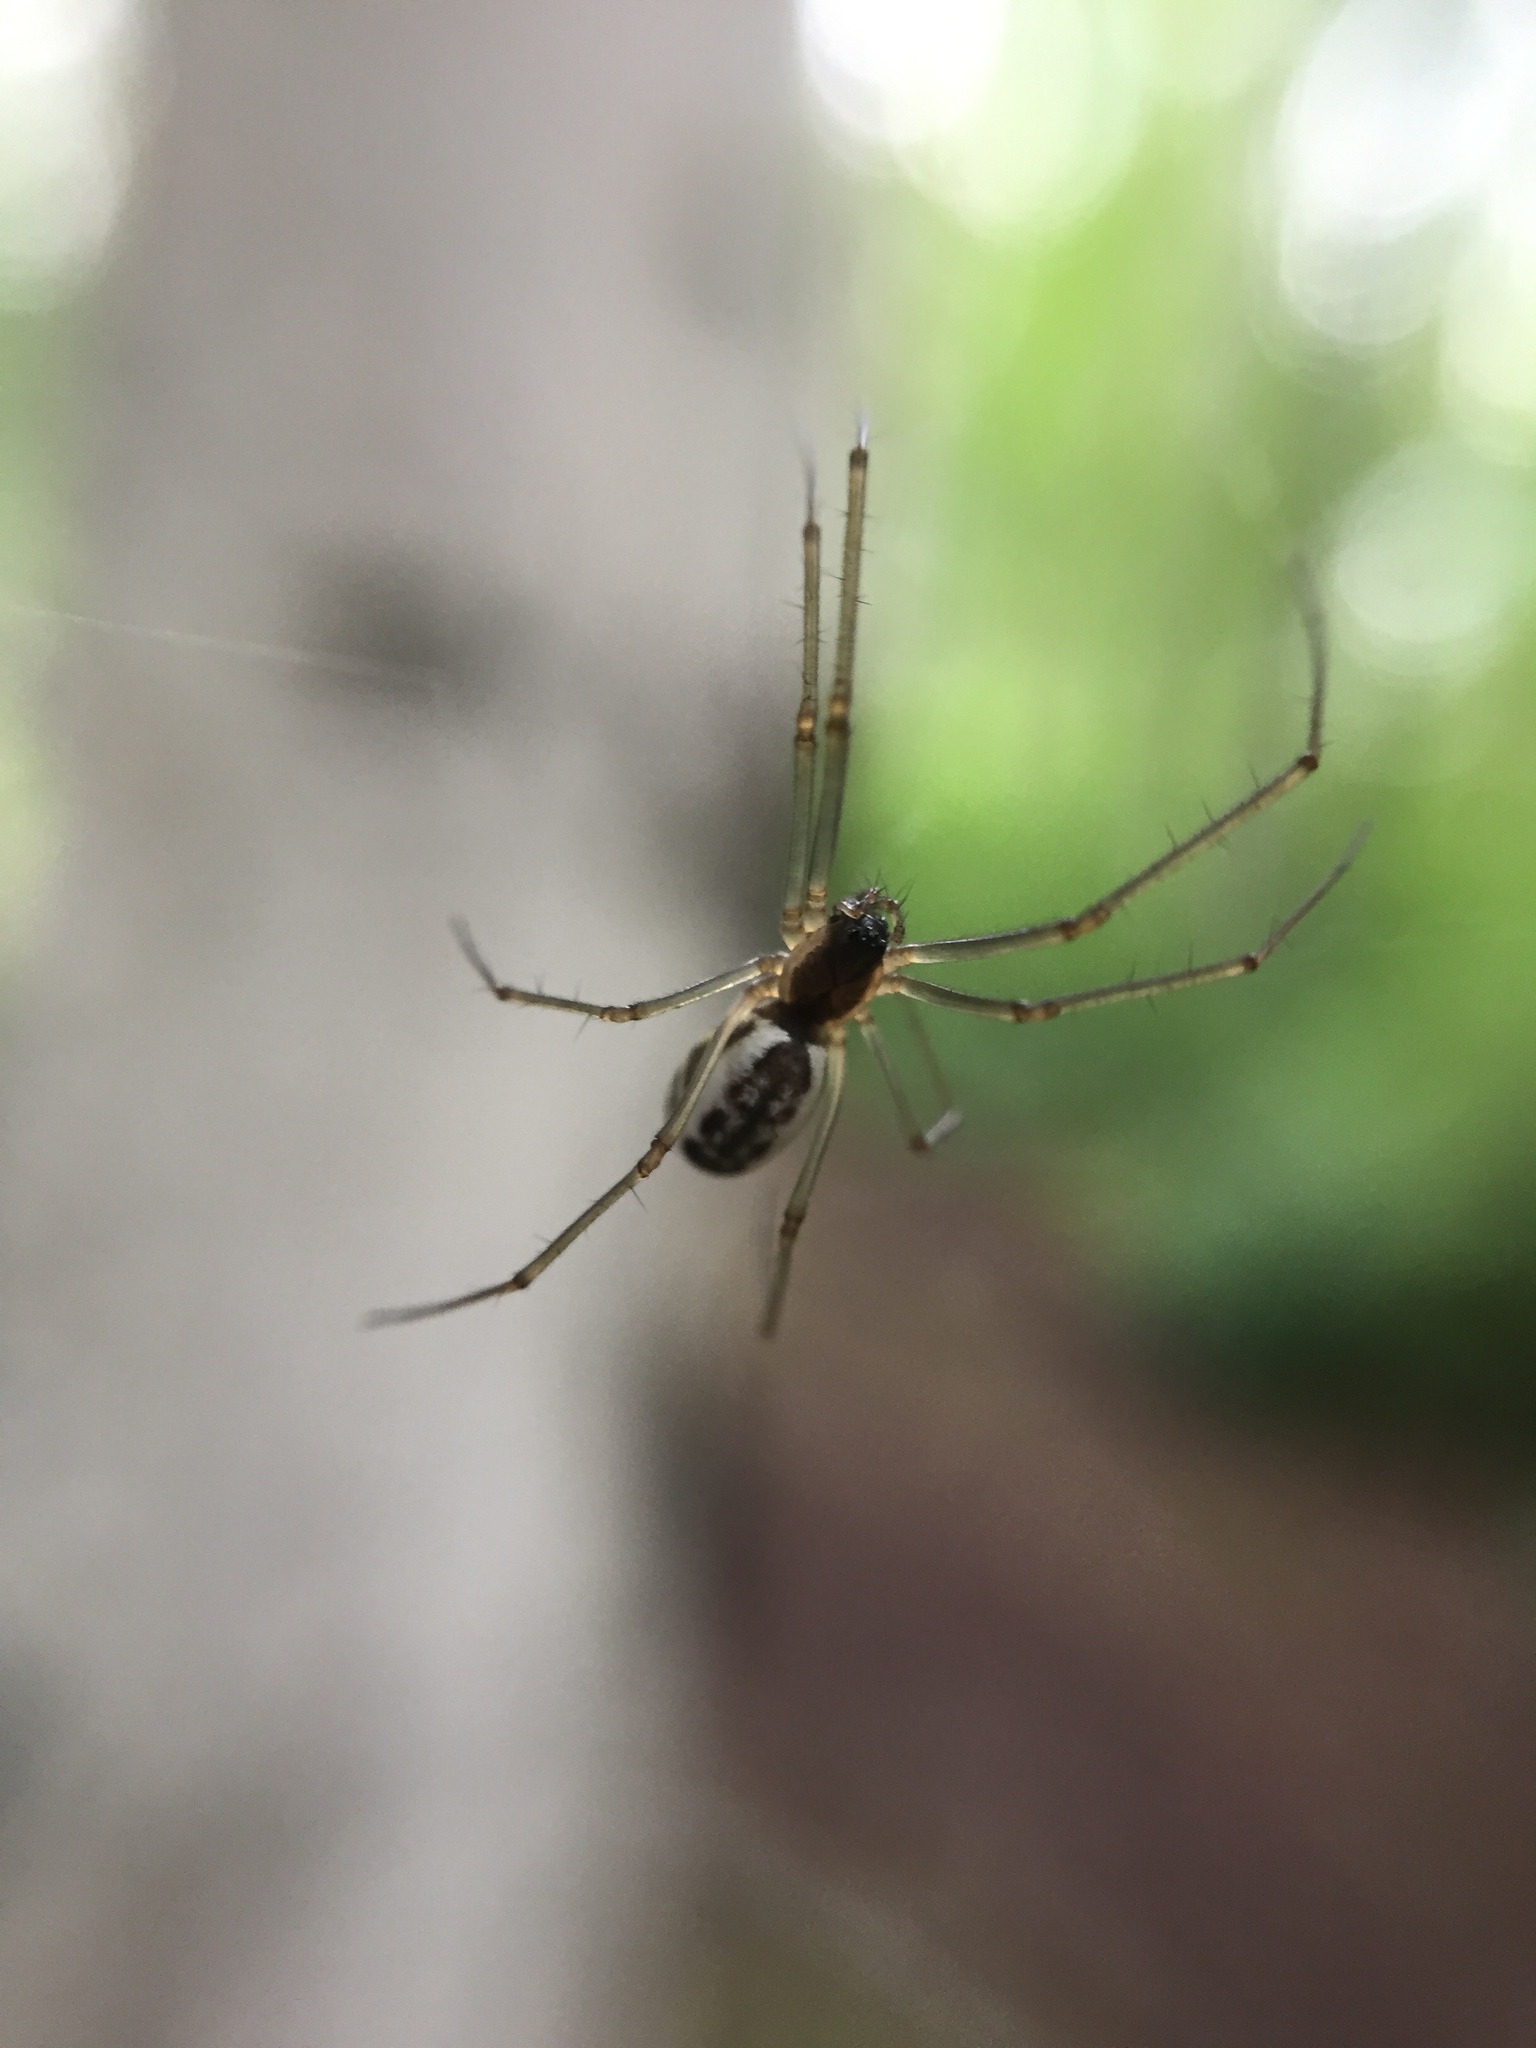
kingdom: Animalia
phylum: Arthropoda
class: Arachnida
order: Araneae
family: Linyphiidae
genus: Neriene
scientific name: Neriene radiata
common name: Filmy dome spider
